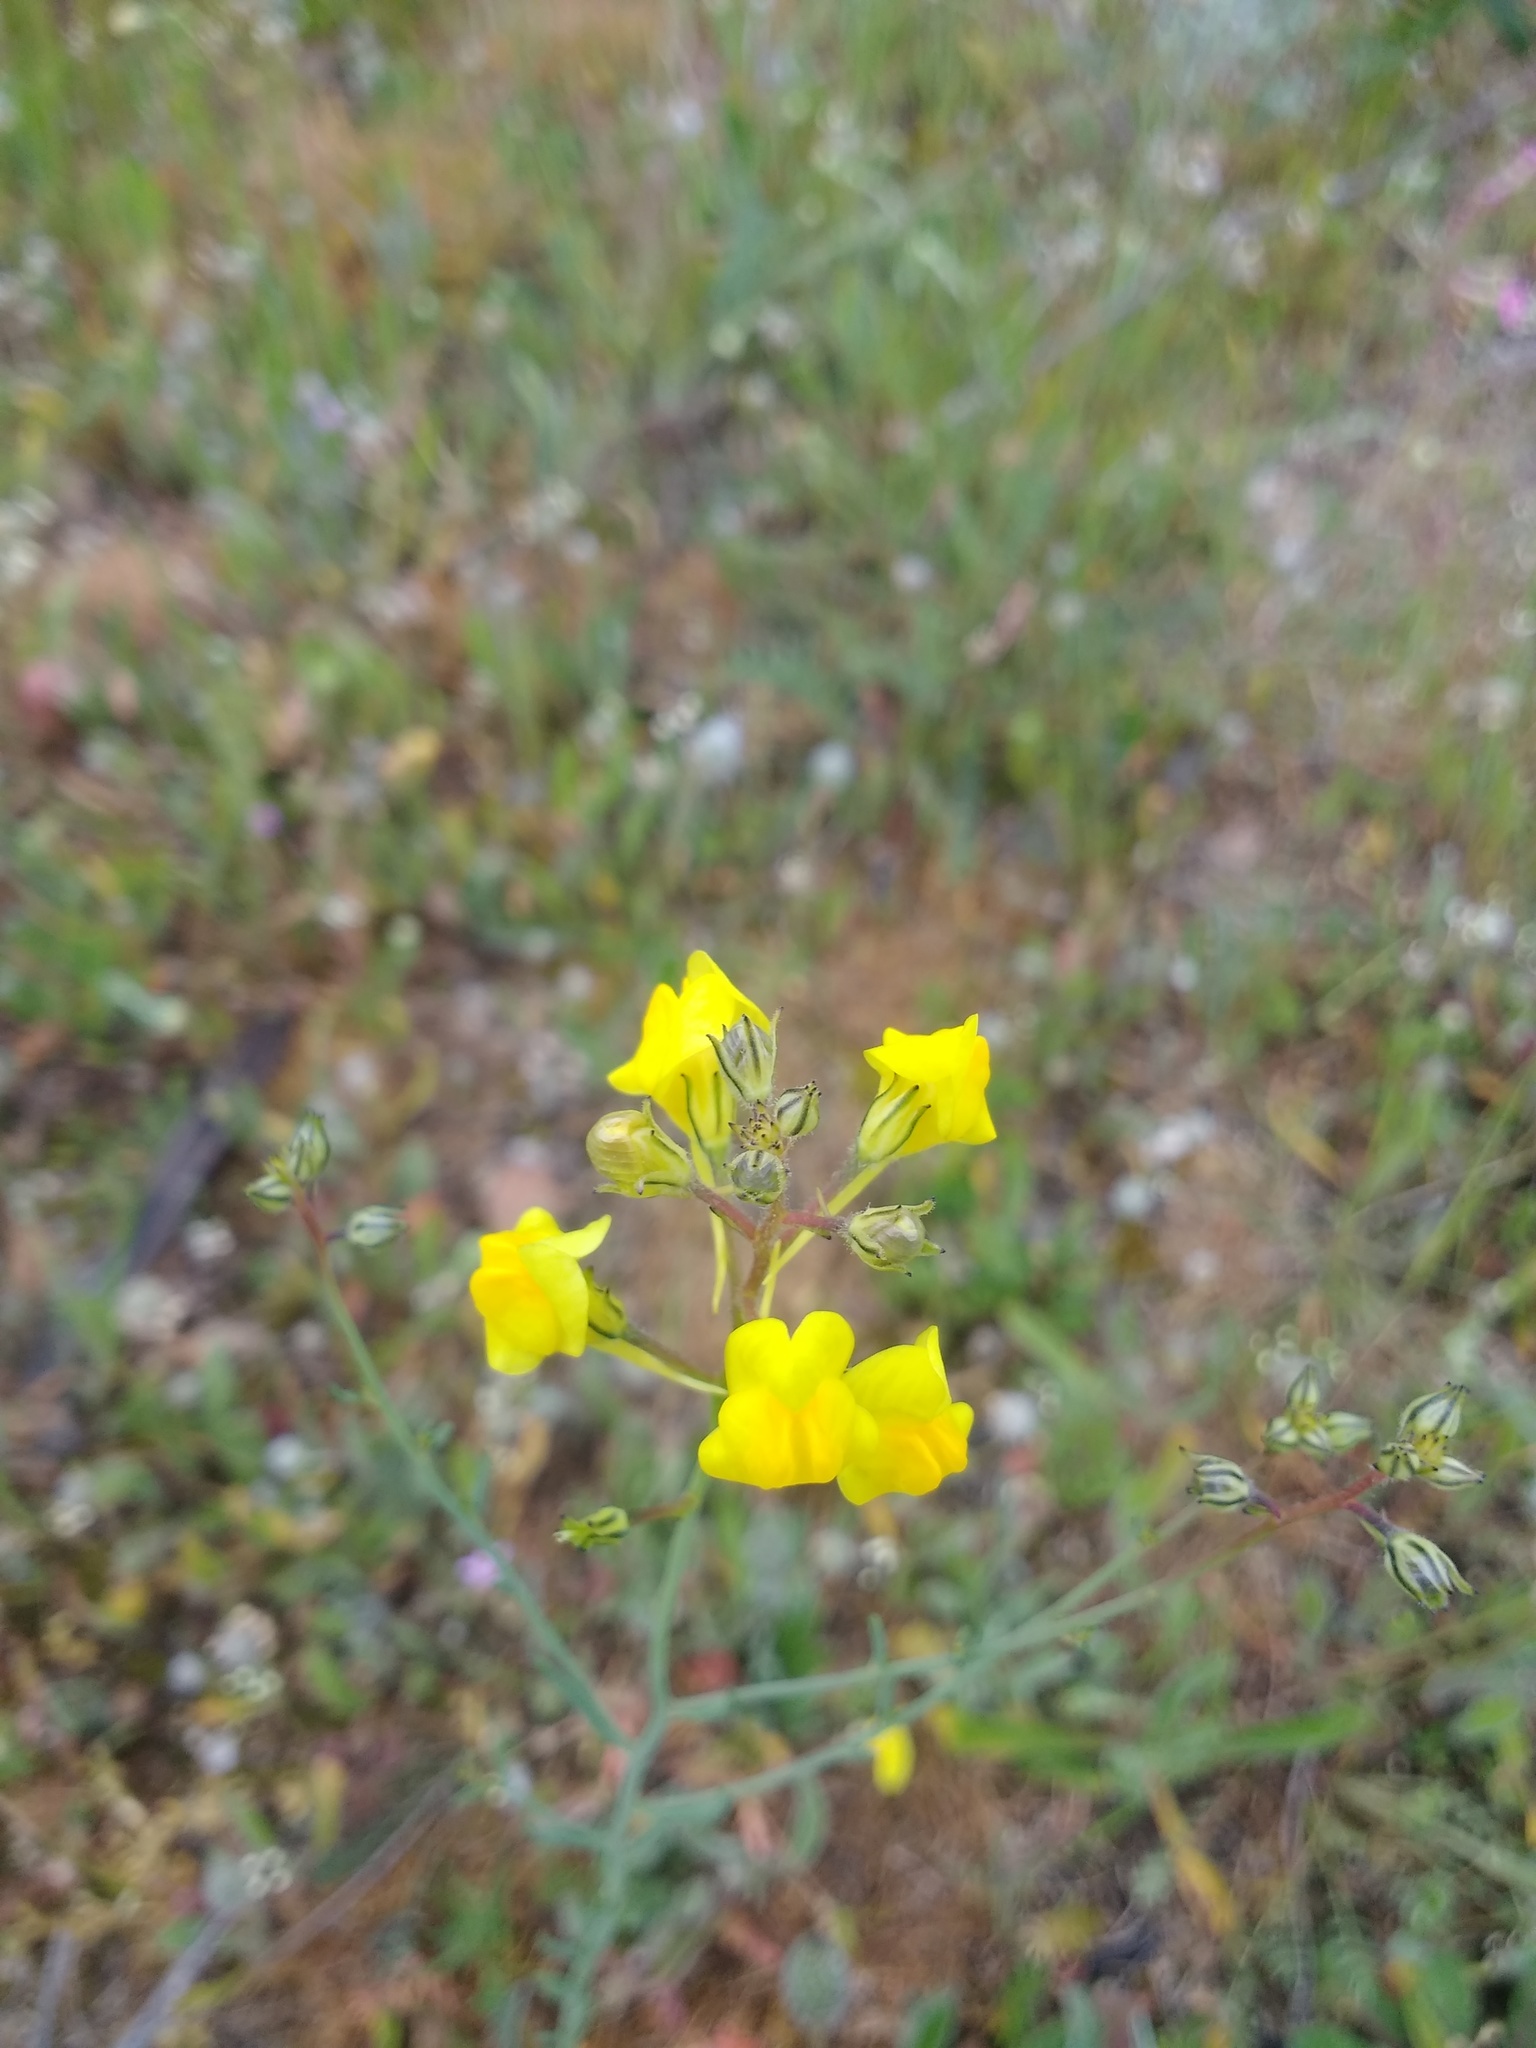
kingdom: Plantae
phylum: Tracheophyta
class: Magnoliopsida
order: Lamiales
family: Plantaginaceae
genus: Linaria
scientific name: Linaria spartea
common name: Ballast toadflax
